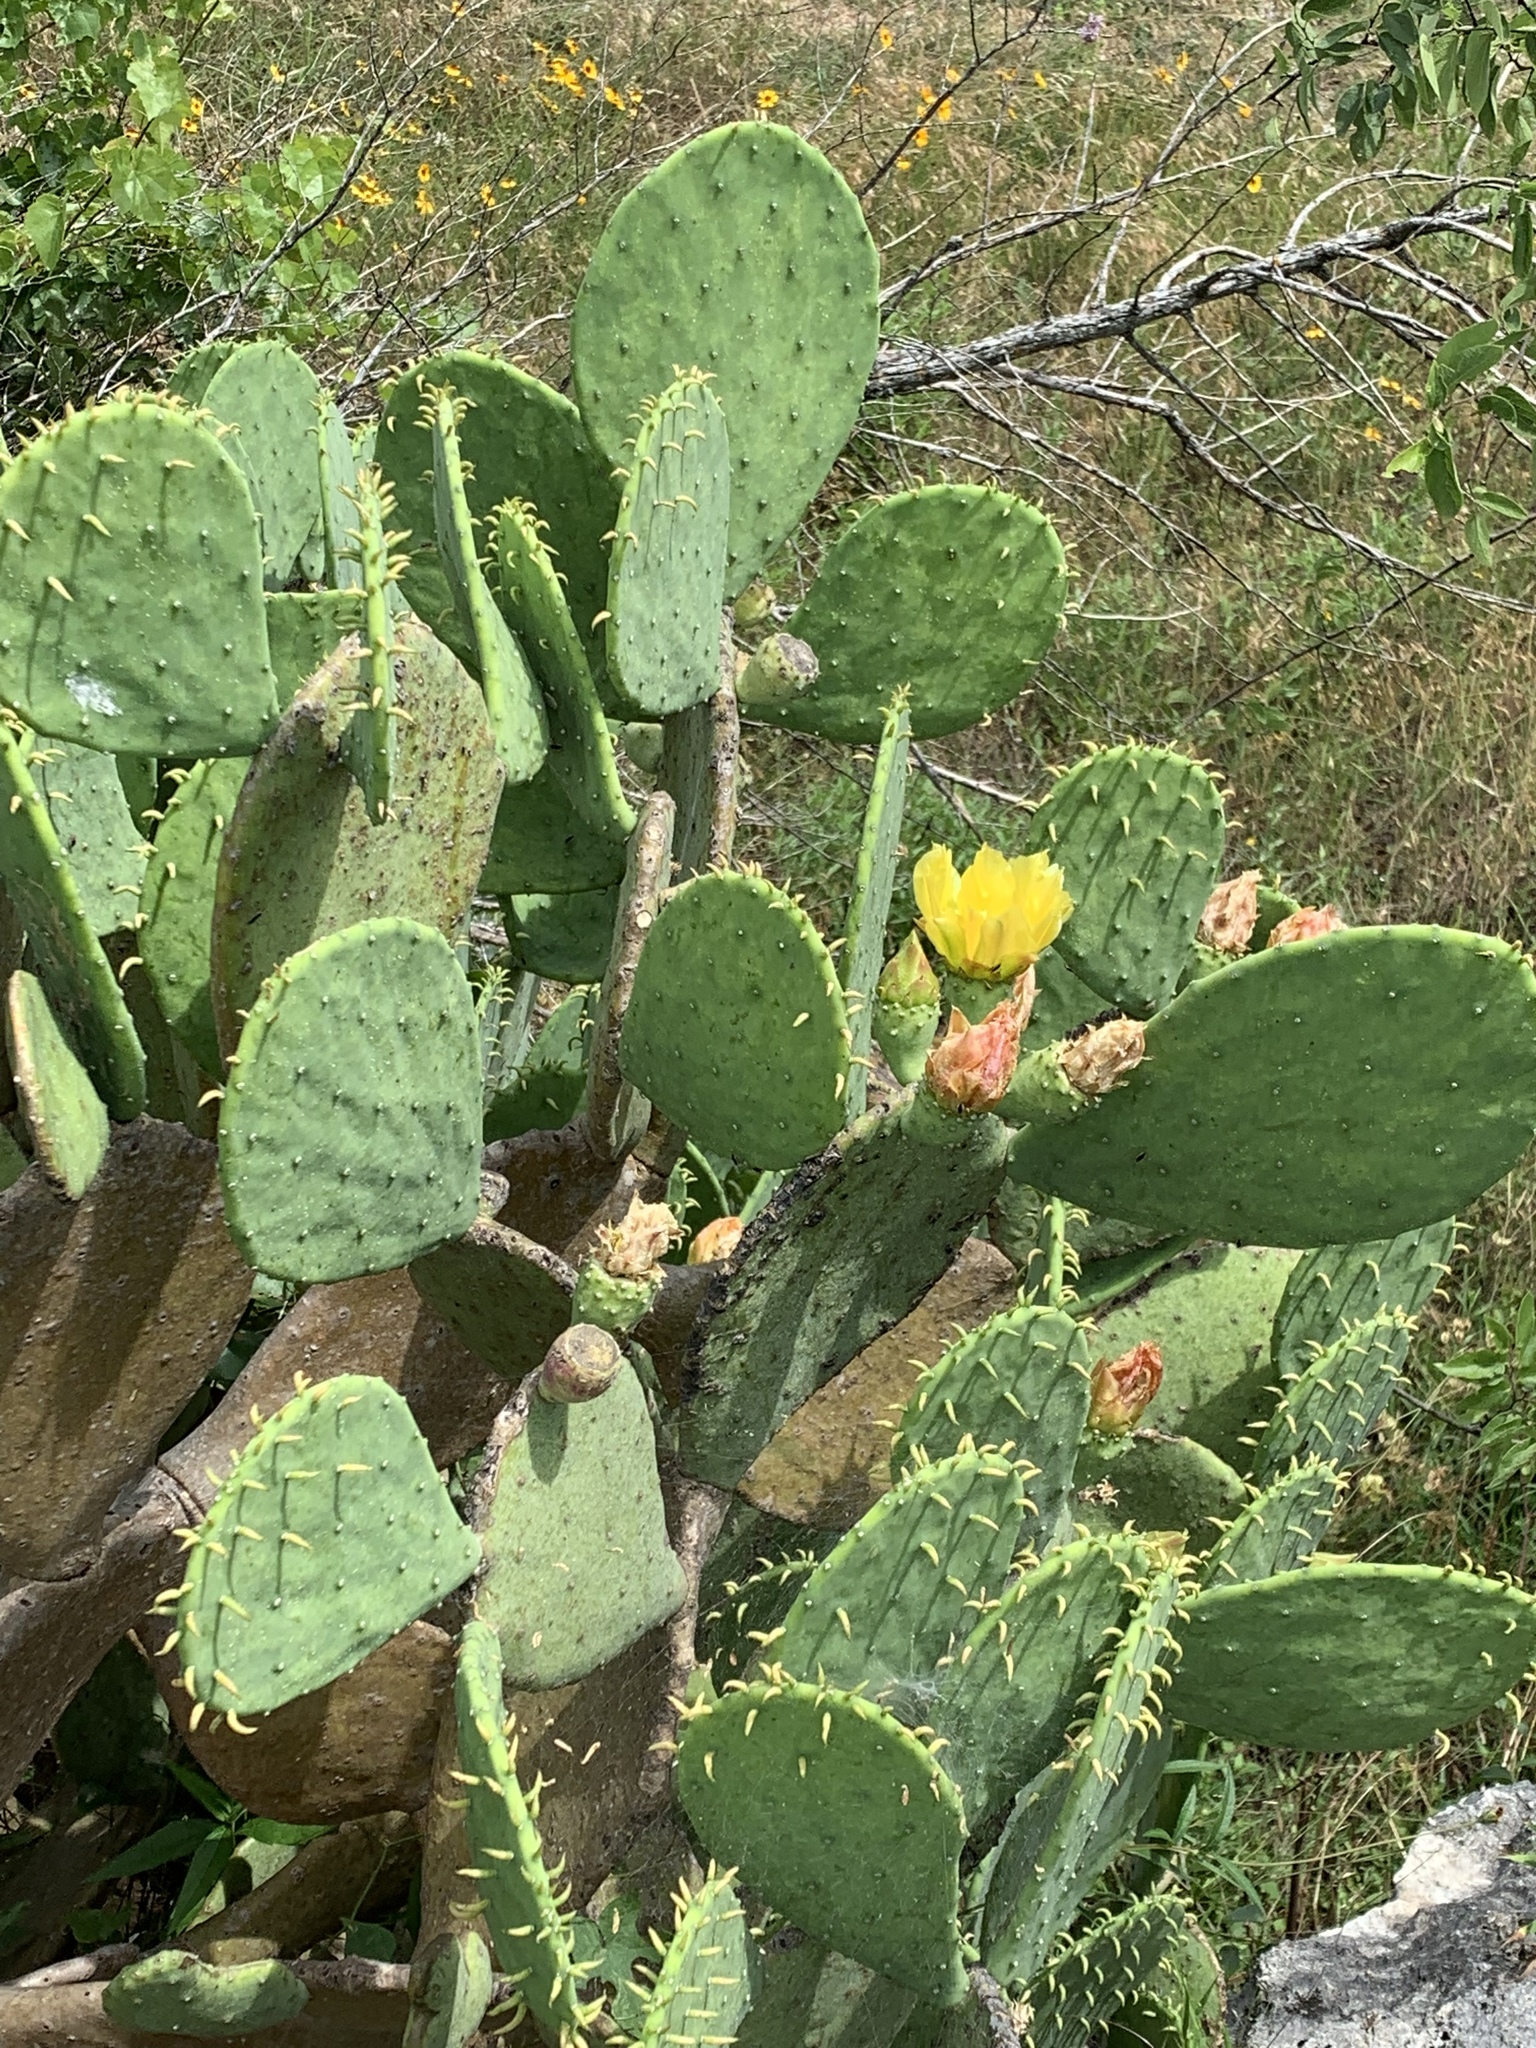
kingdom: Plantae
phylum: Tracheophyta
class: Magnoliopsida
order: Caryophyllales
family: Cactaceae
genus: Opuntia
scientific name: Opuntia engelmannii
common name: Cactus-apple
